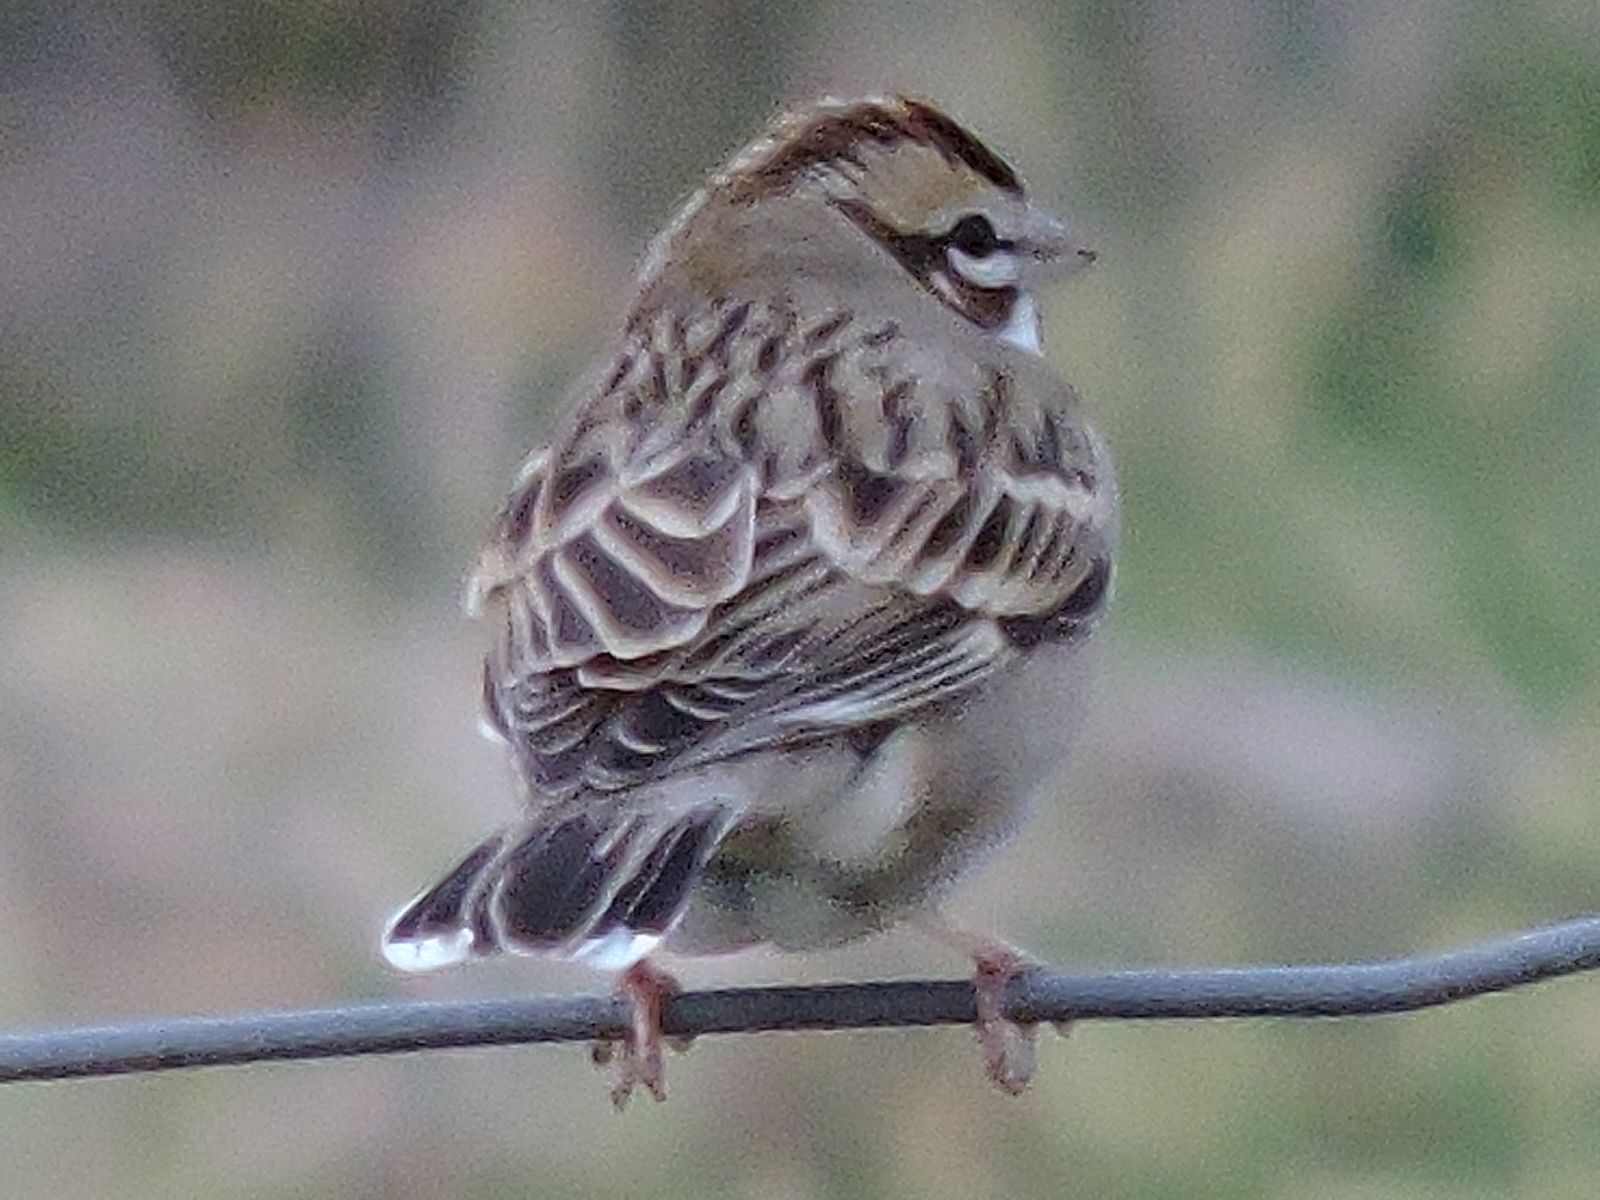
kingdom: Animalia
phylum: Chordata
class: Aves
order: Passeriformes
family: Passerellidae
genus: Chondestes
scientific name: Chondestes grammacus
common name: Lark sparrow
